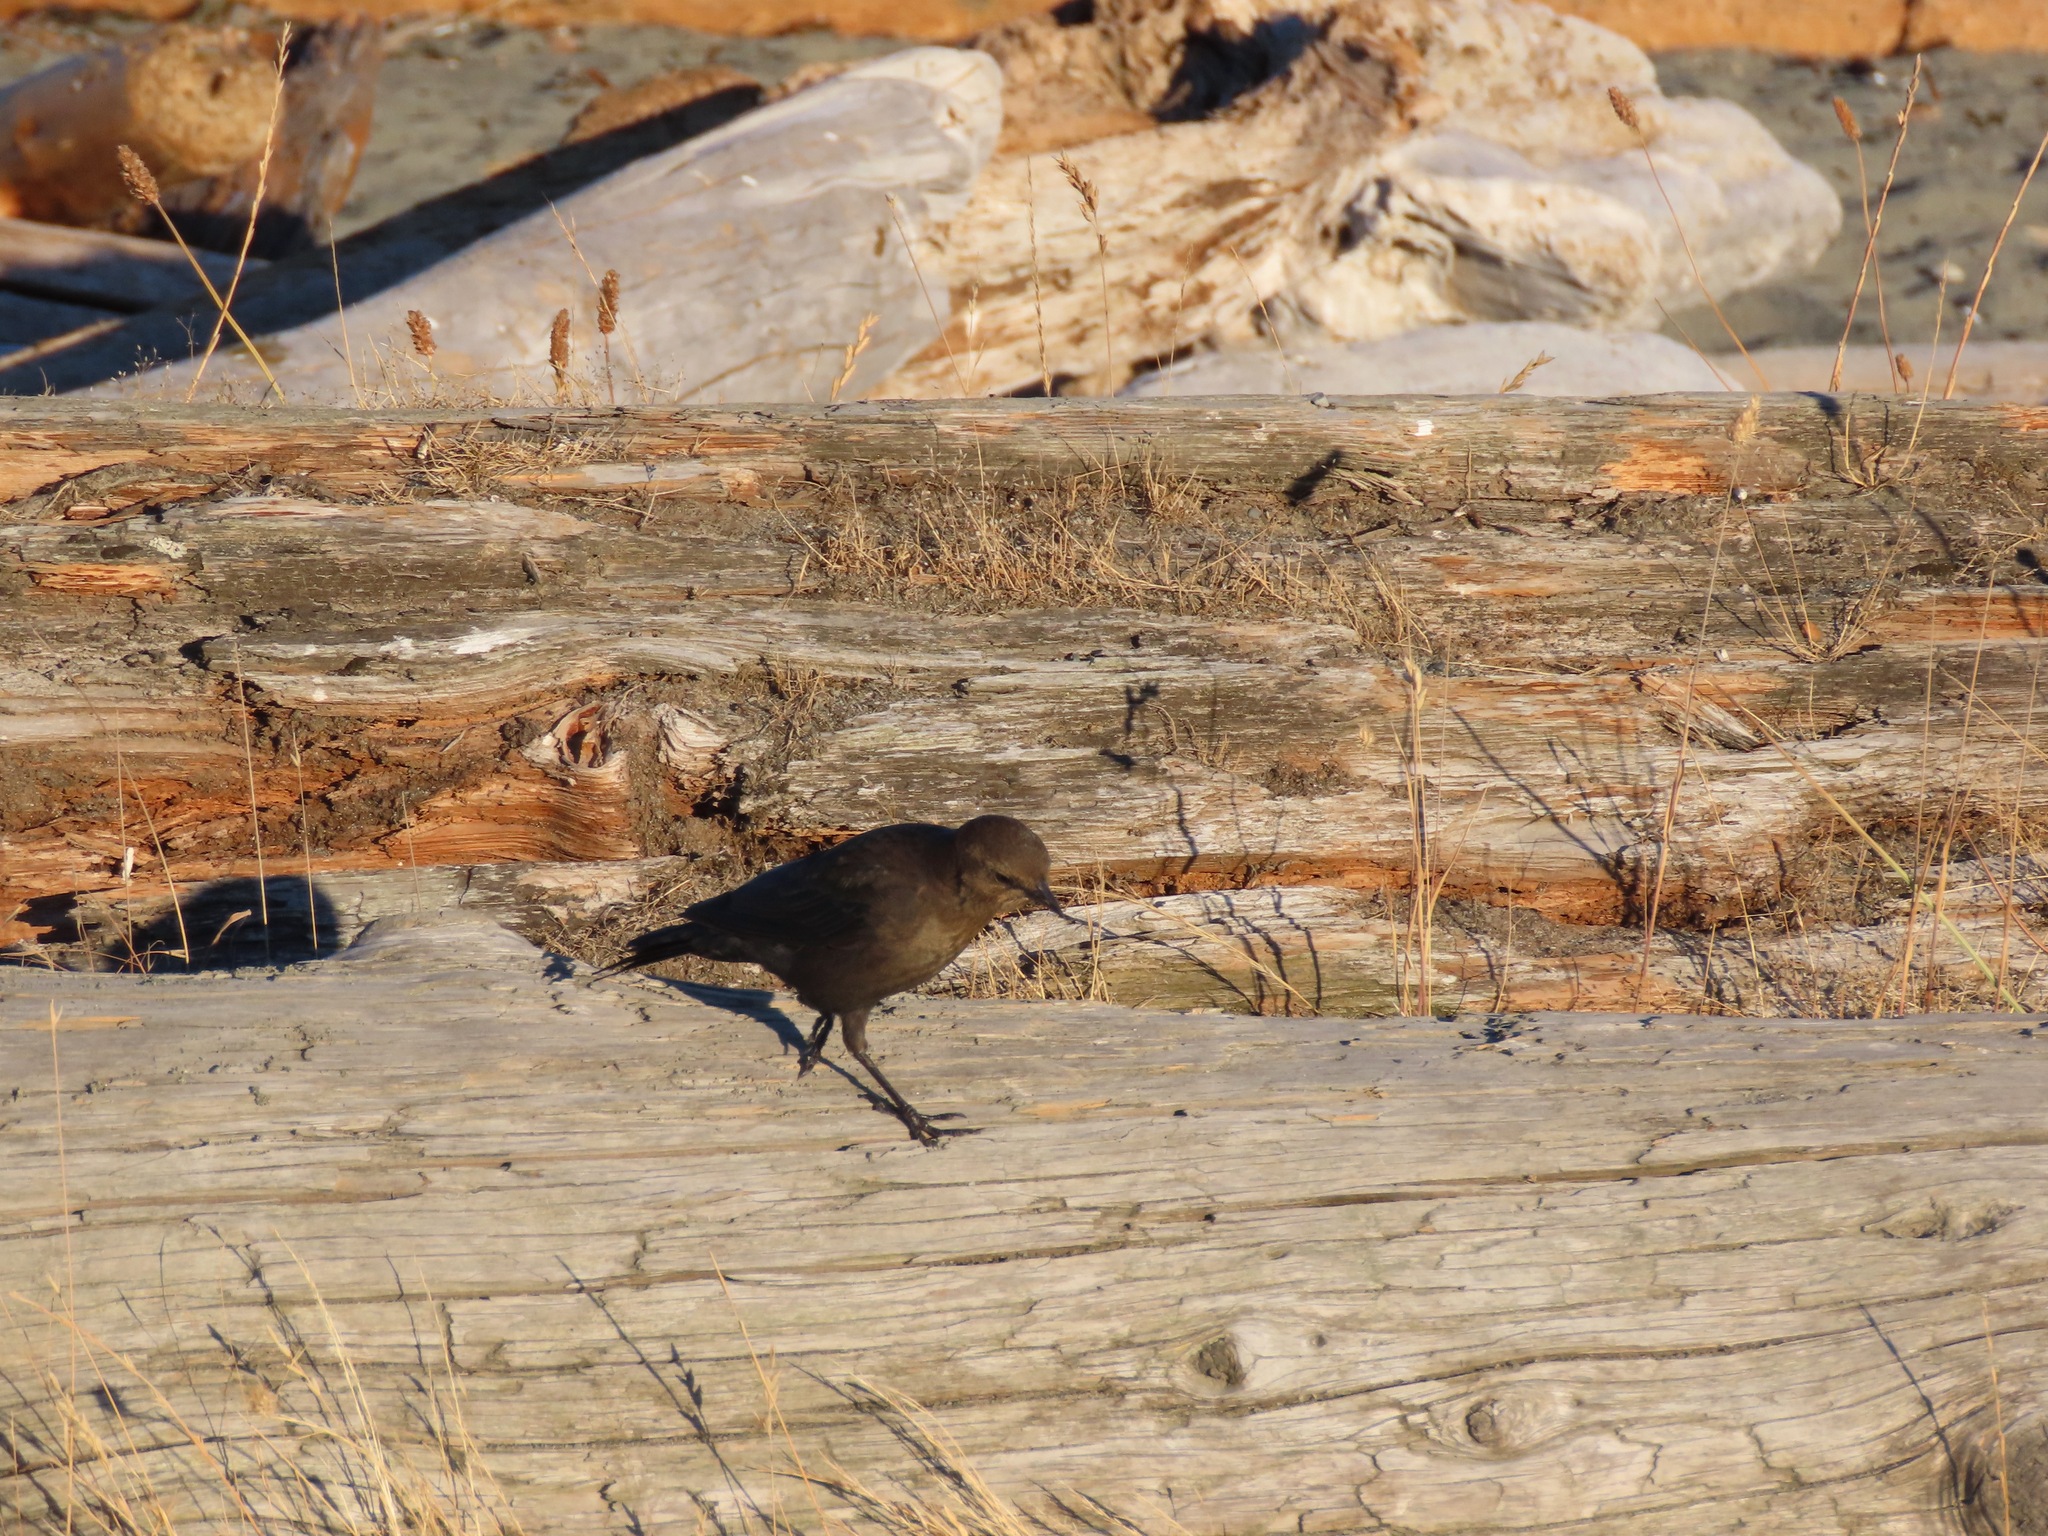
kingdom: Animalia
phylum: Chordata
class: Aves
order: Passeriformes
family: Icteridae
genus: Euphagus
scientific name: Euphagus cyanocephalus
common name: Brewer's blackbird
